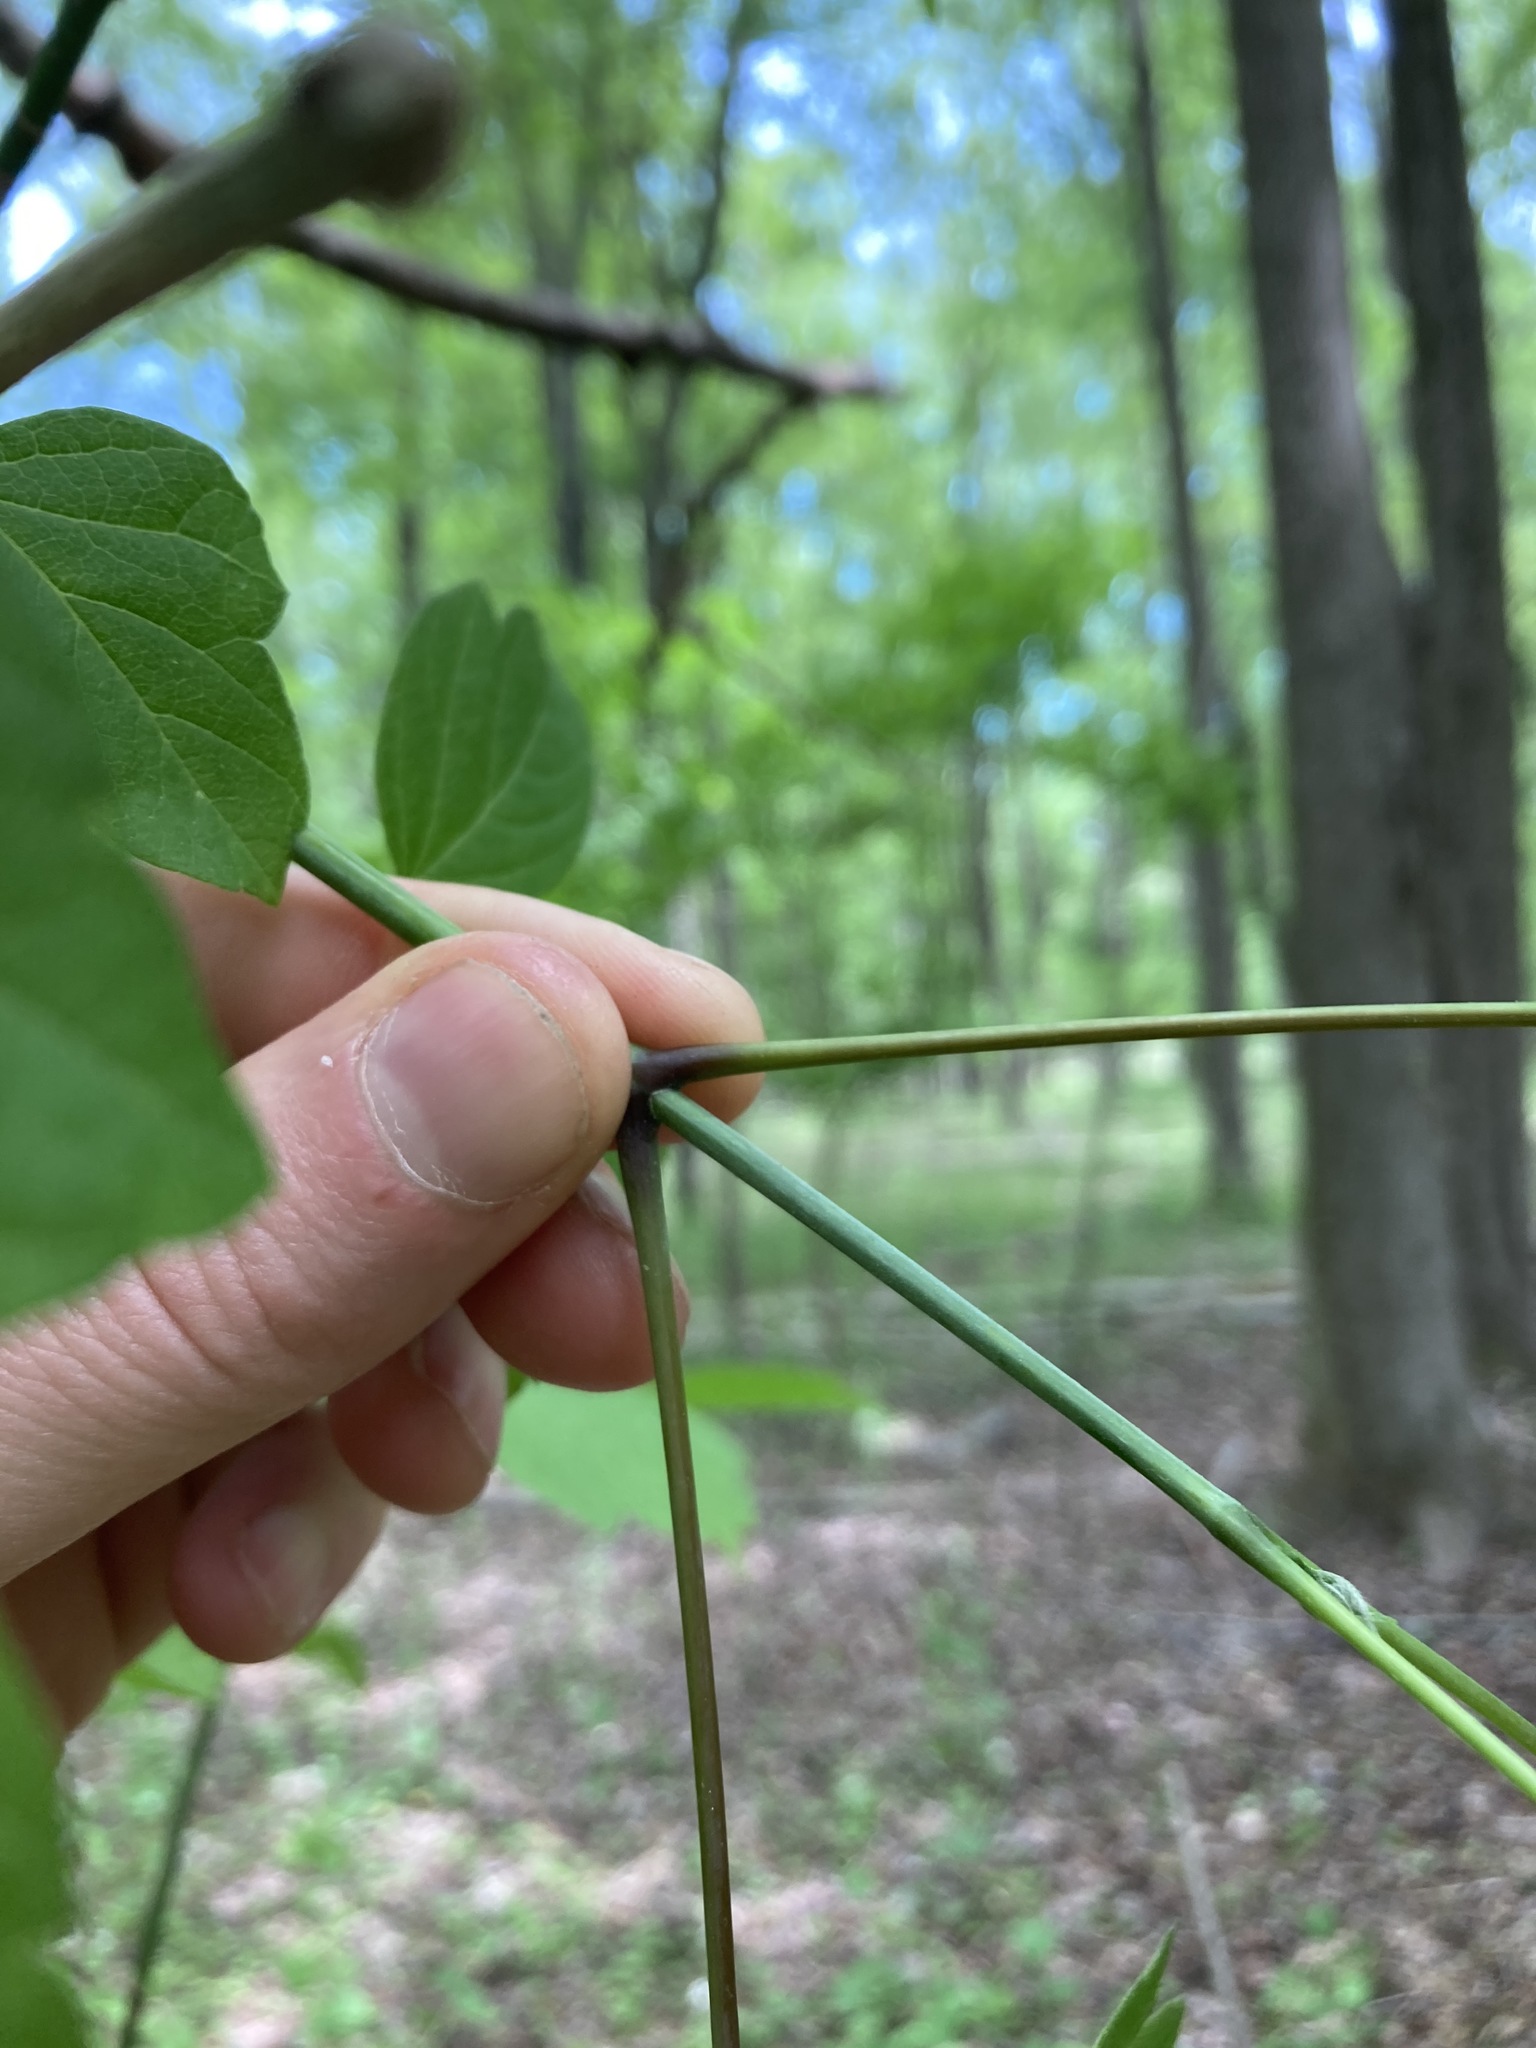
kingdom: Plantae
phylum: Tracheophyta
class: Magnoliopsida
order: Sapindales
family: Sapindaceae
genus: Acer
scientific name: Acer negundo
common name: Ashleaf maple
